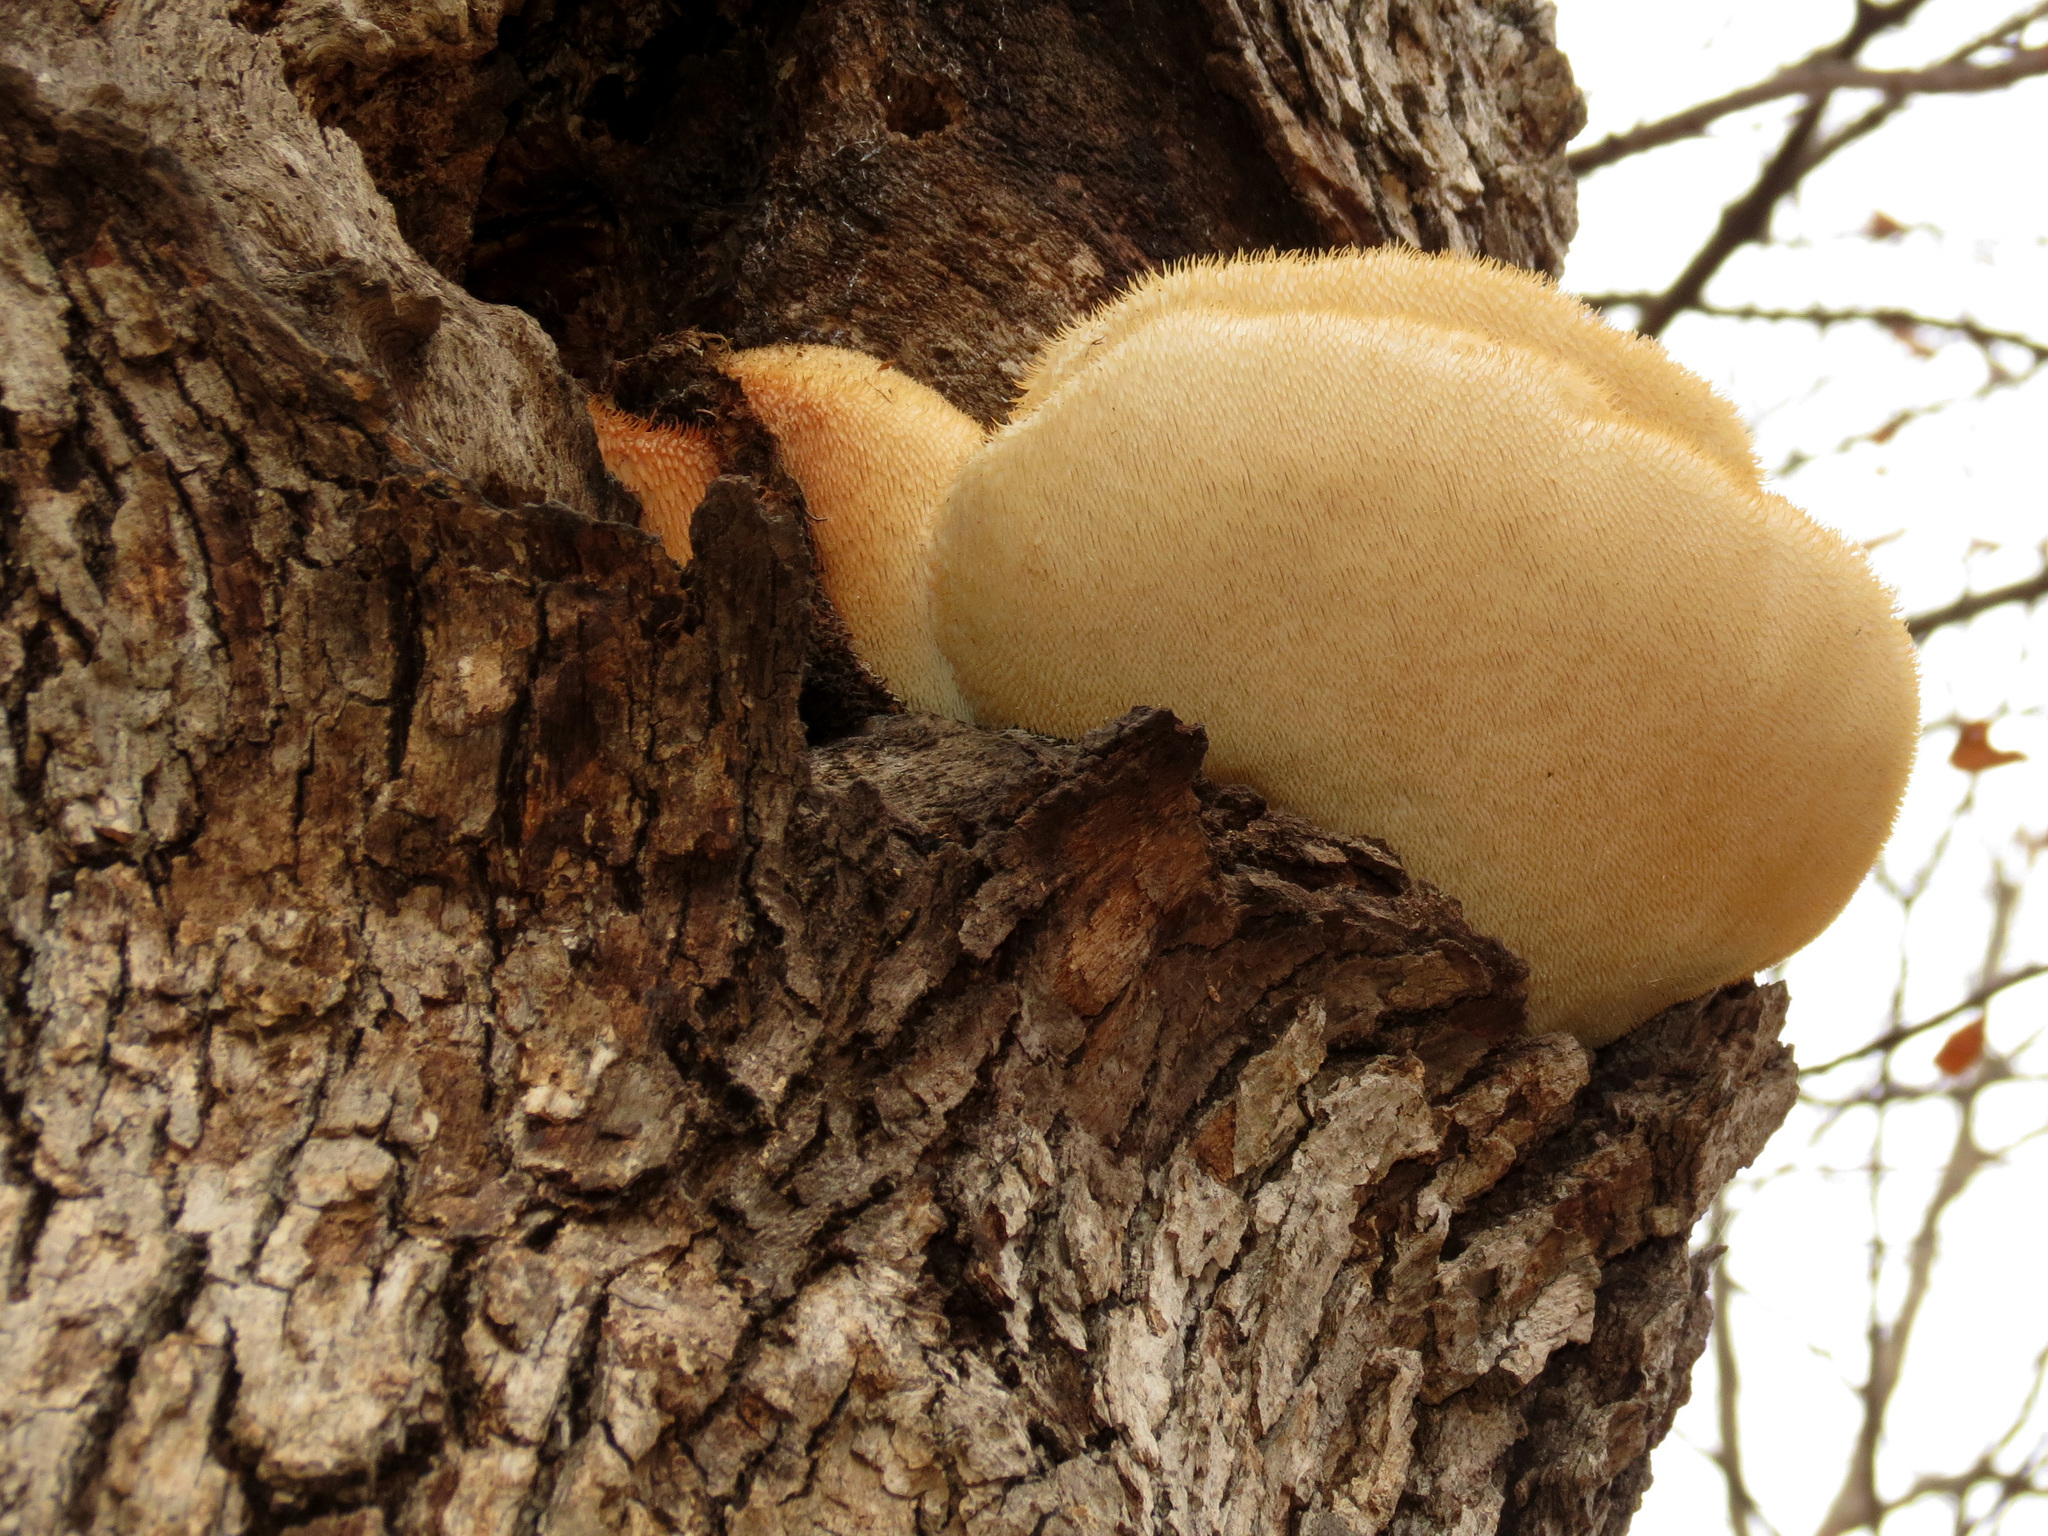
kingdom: Fungi
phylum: Basidiomycota
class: Agaricomycetes
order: Russulales
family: Hericiaceae
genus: Hericium
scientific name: Hericium erinaceus
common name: Bearded tooth
